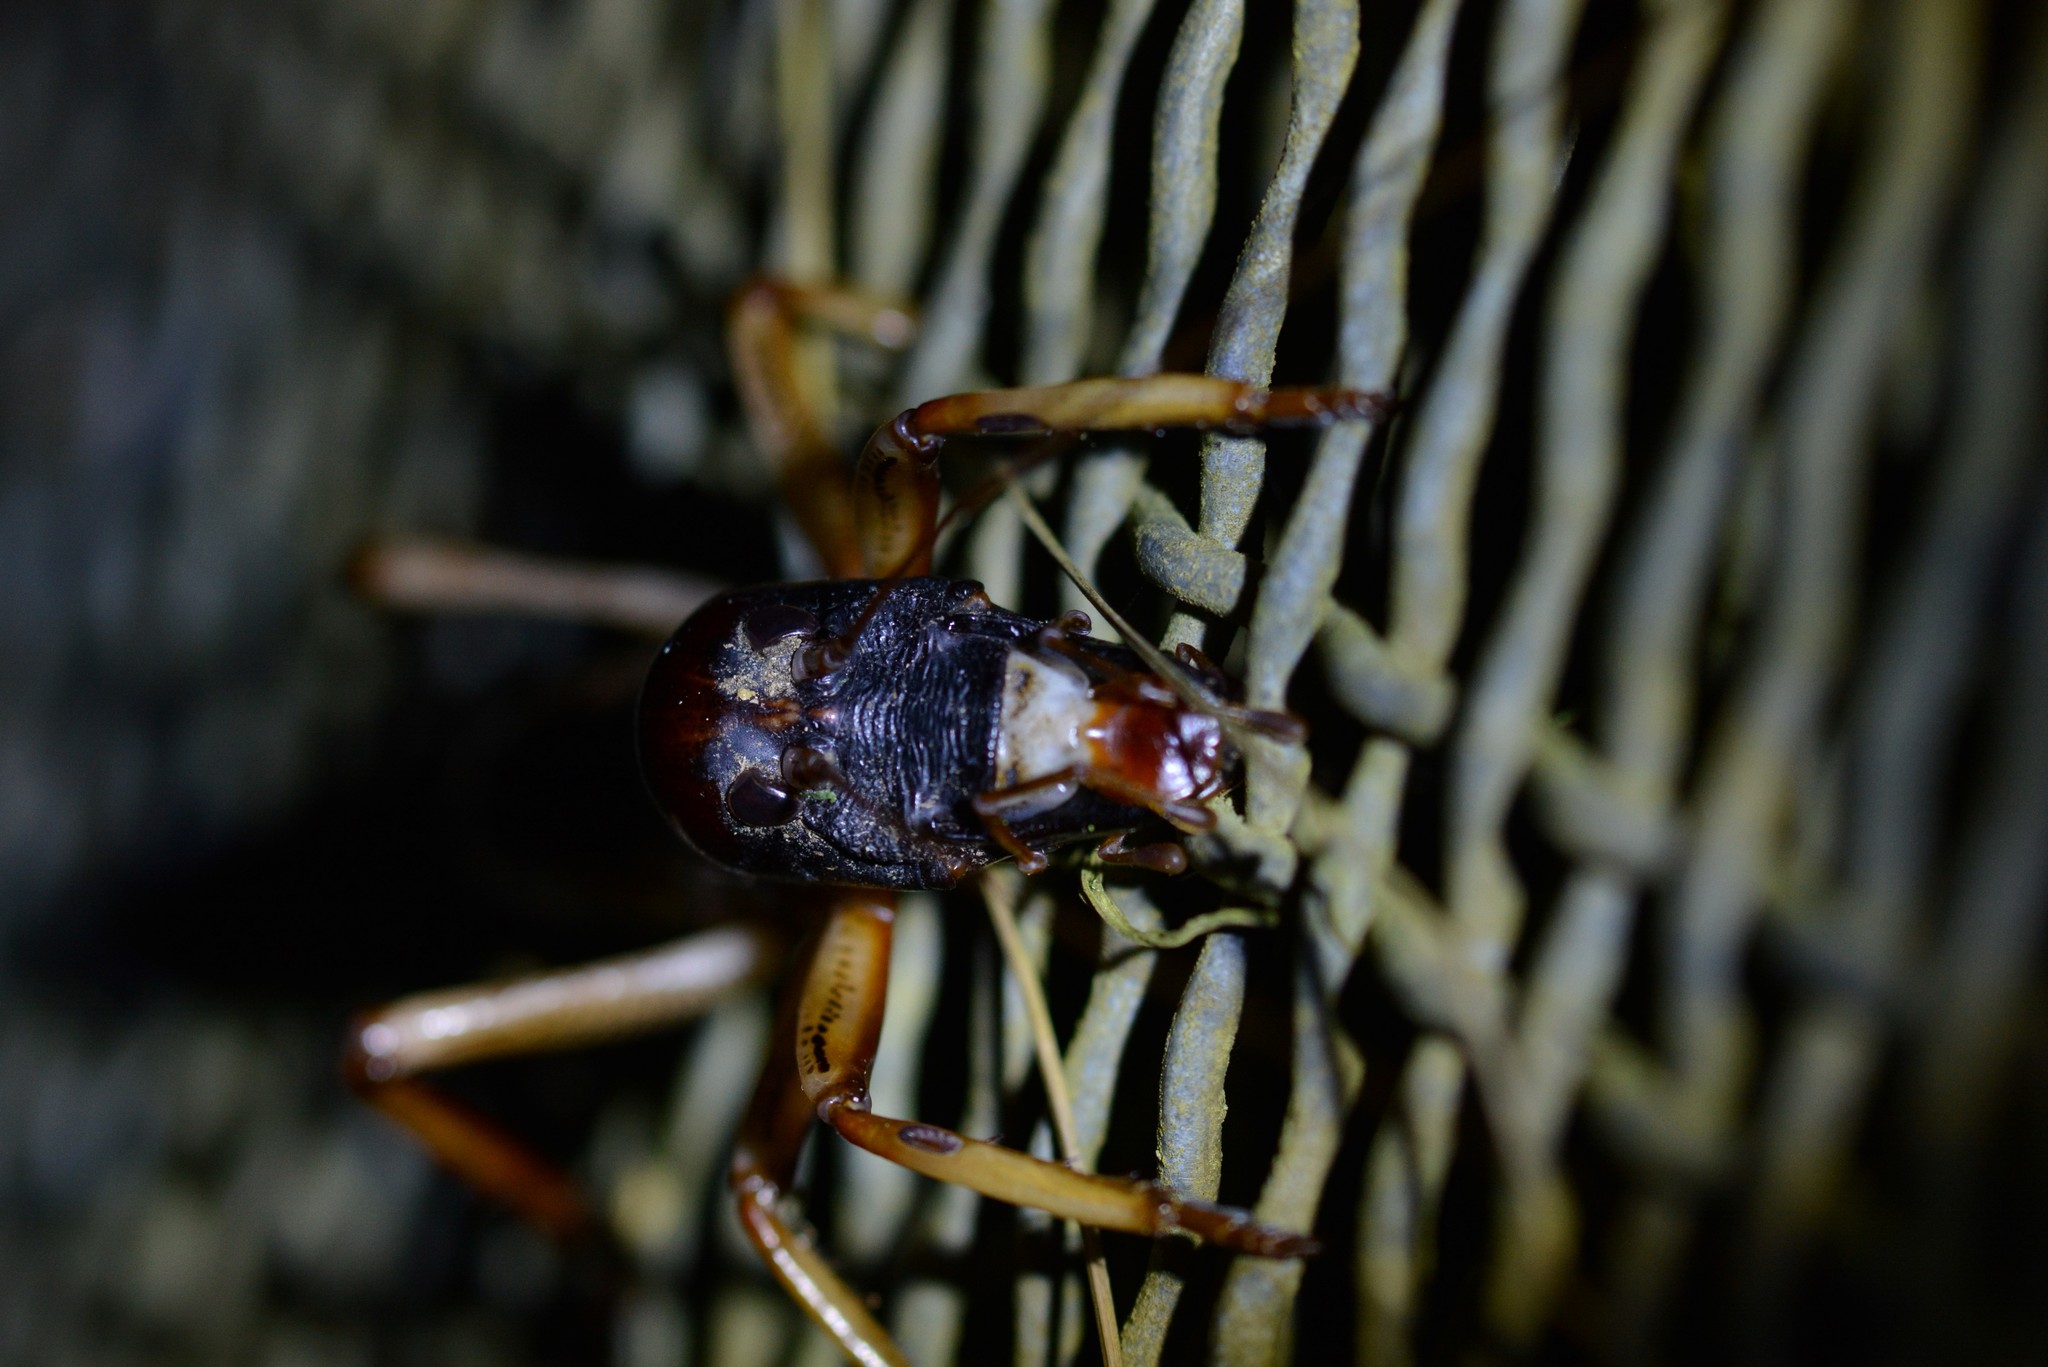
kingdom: Animalia
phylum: Arthropoda
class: Insecta
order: Orthoptera
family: Anostostomatidae
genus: Hemideina
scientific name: Hemideina crassidens
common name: Wellington tree weta
